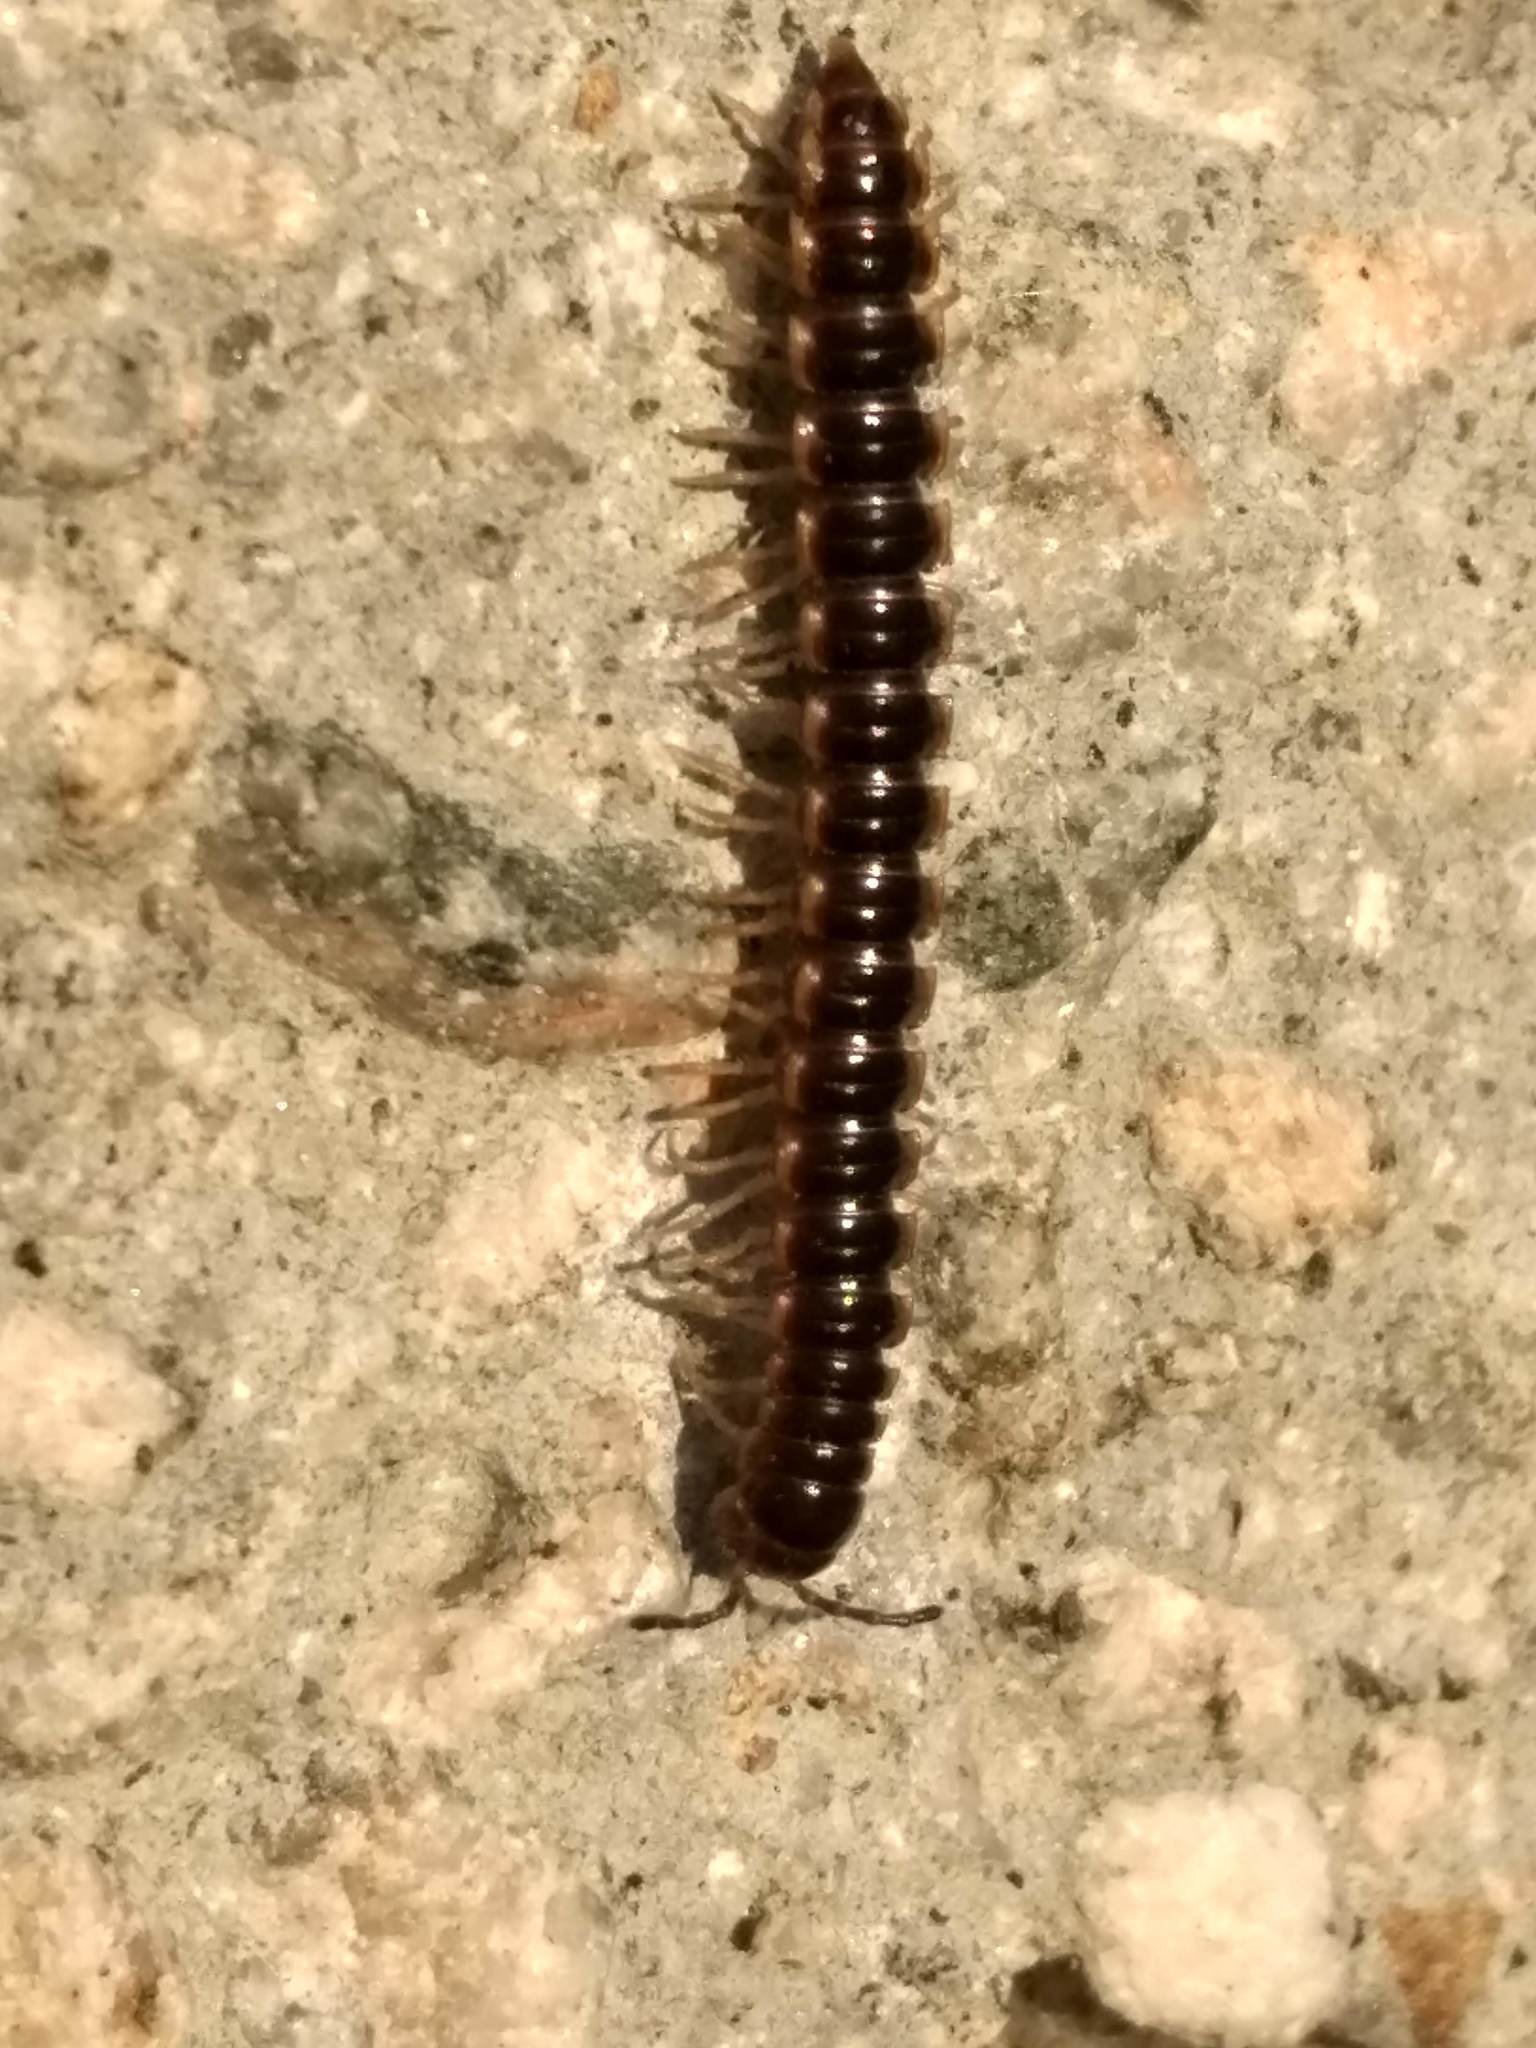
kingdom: Animalia
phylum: Arthropoda
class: Diplopoda
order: Polydesmida
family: Paradoxosomatidae
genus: Oxidus
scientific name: Oxidus gracilis
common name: Greenhouse millipede
